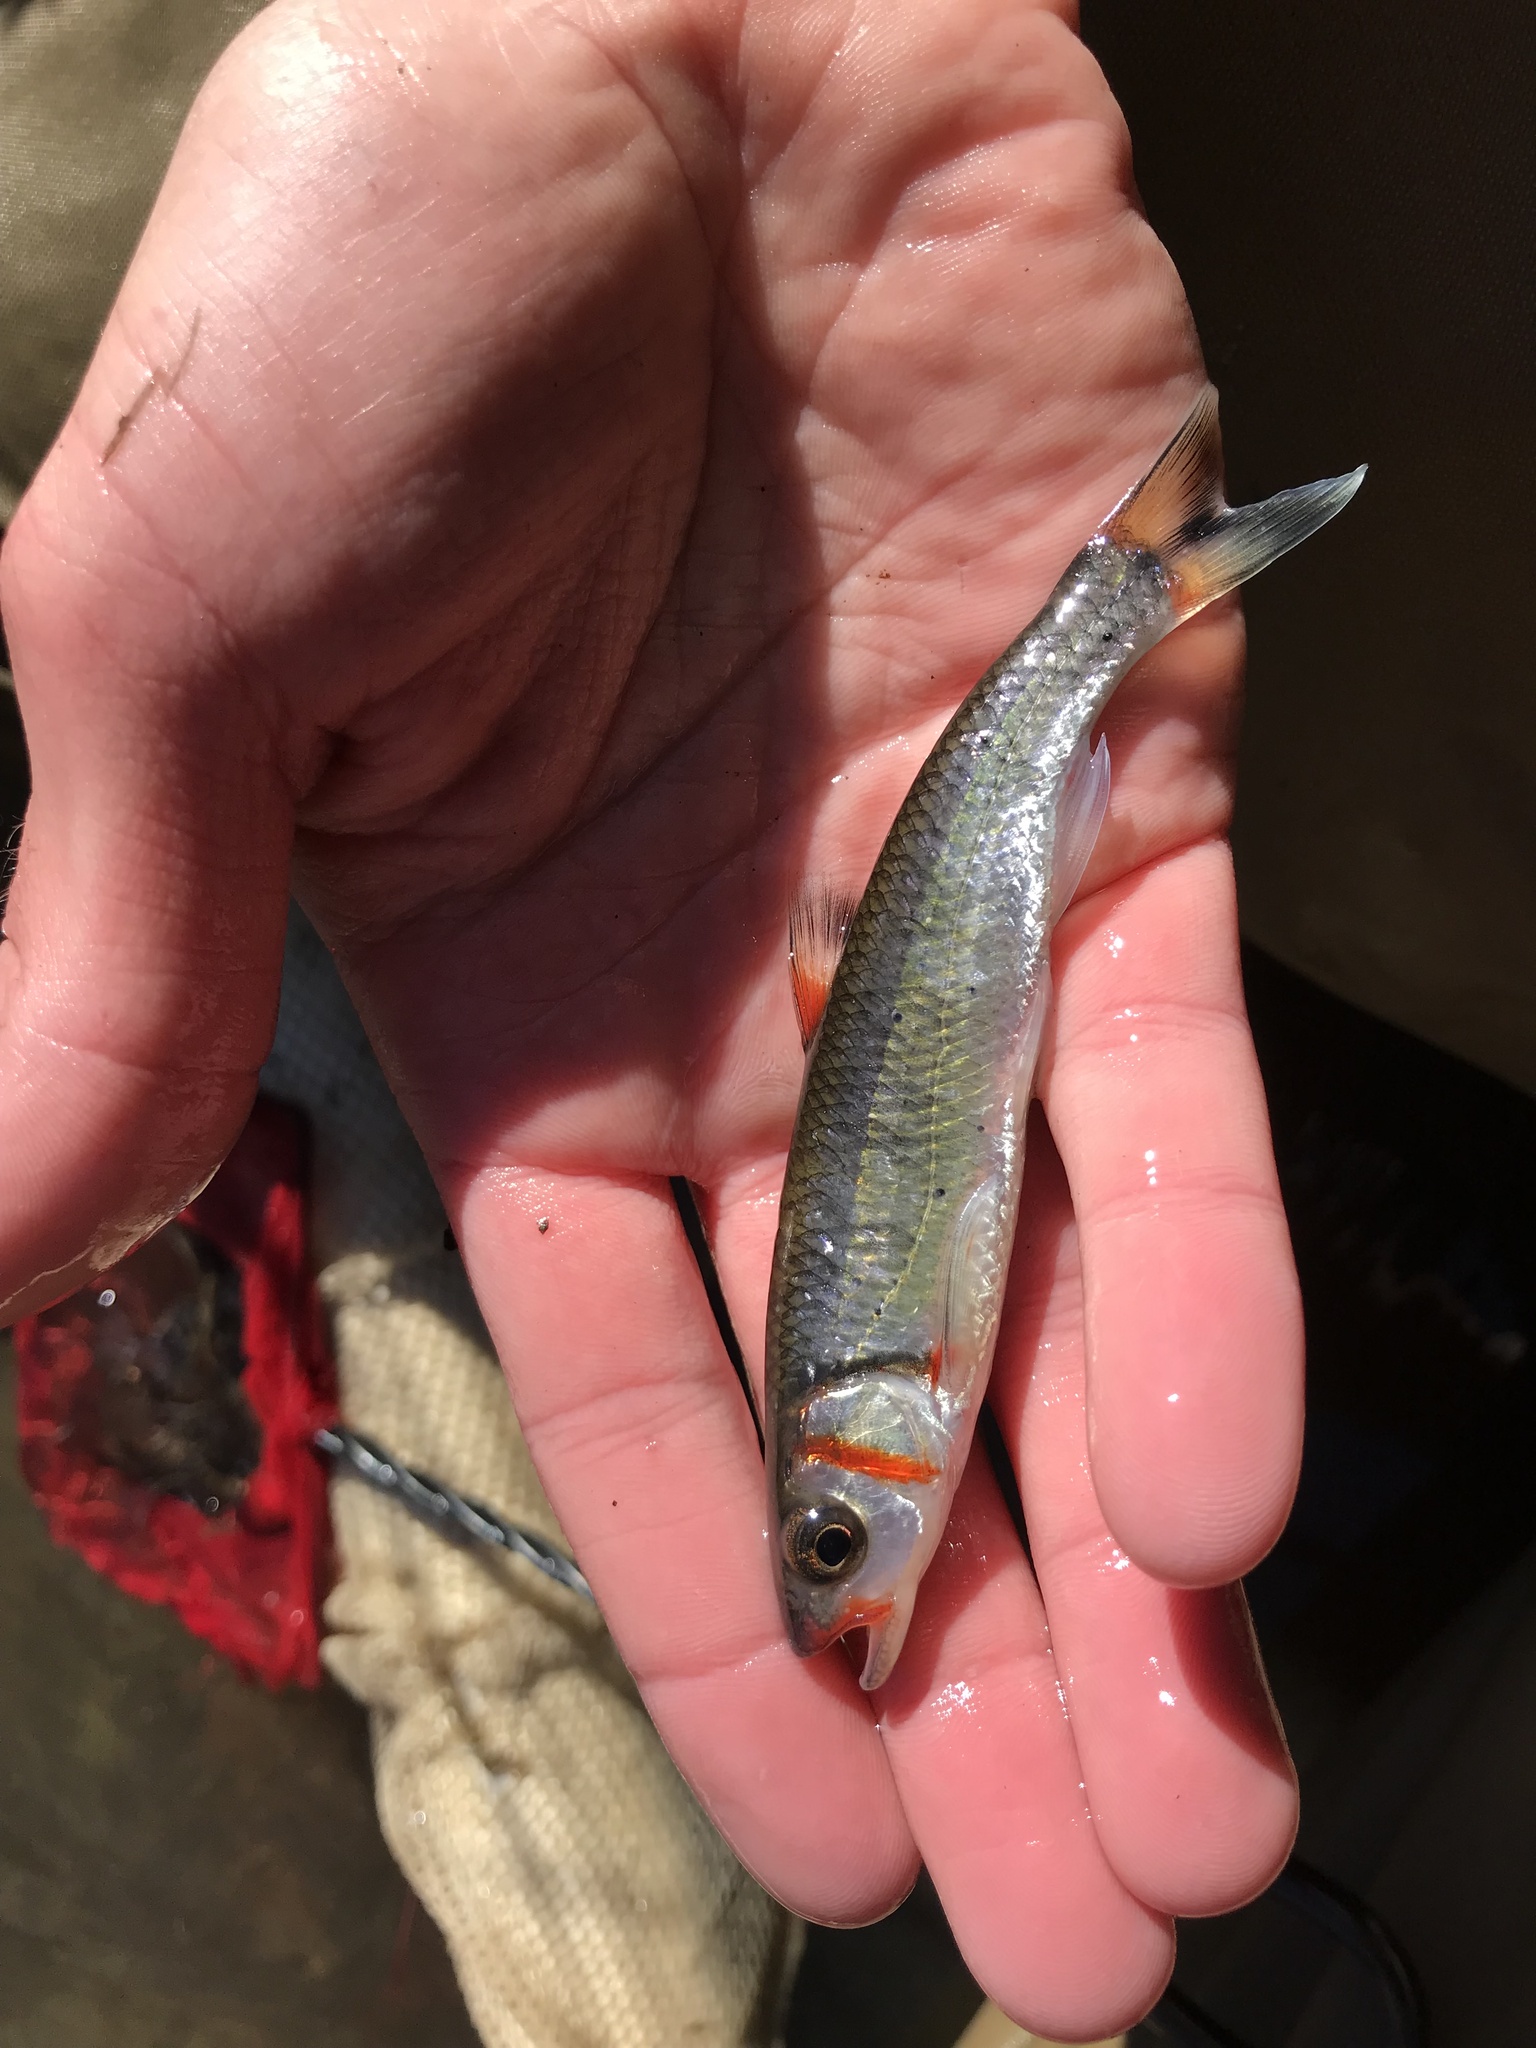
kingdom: Animalia
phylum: Chordata
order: Cypriniformes
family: Cyprinidae
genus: Luxilus
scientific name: Luxilus
